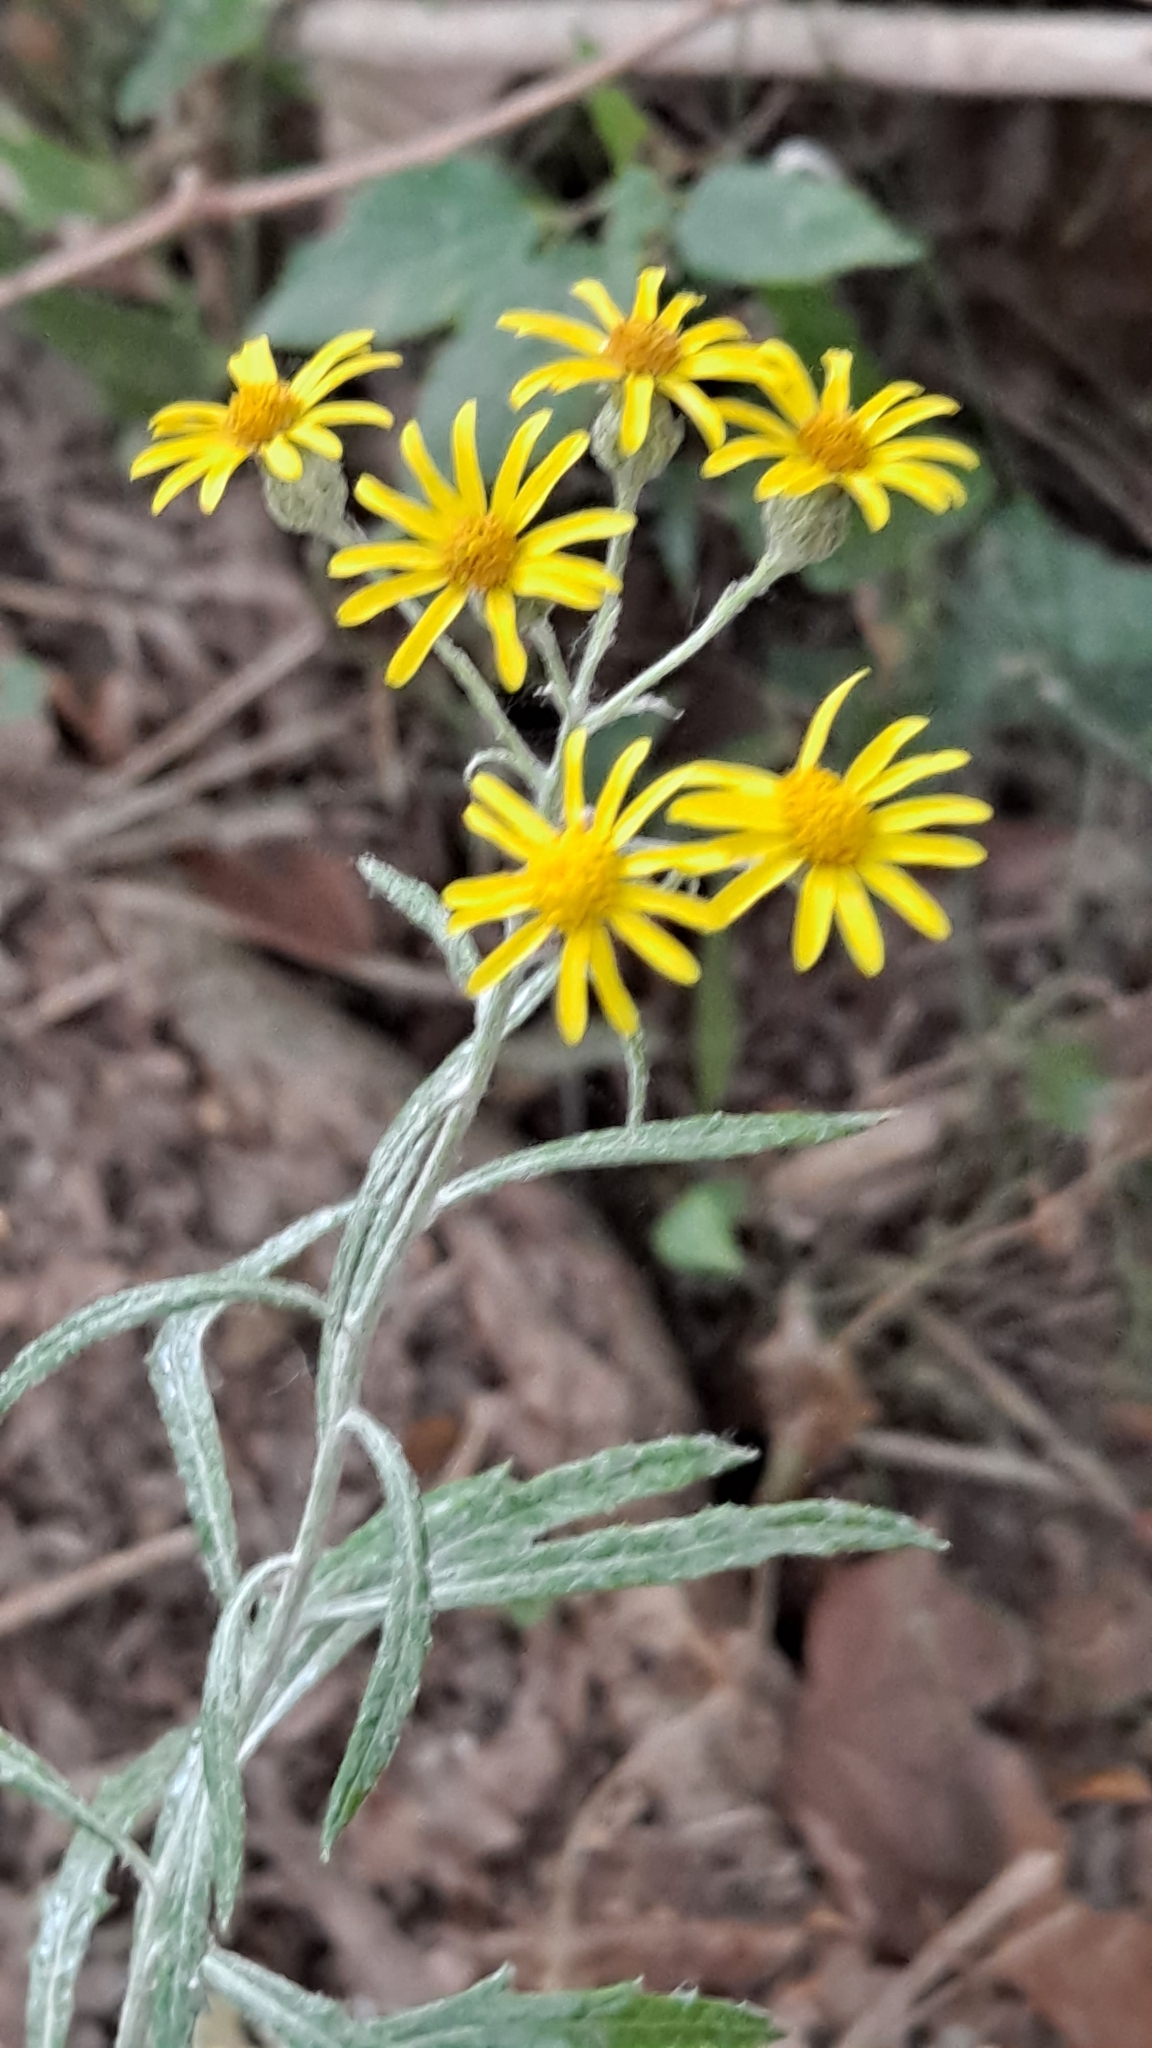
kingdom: Plantae
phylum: Tracheophyta
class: Magnoliopsida
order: Asterales
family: Asteraceae
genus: Senecio
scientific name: Senecio pterophorus
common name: Shoddy ragwort
